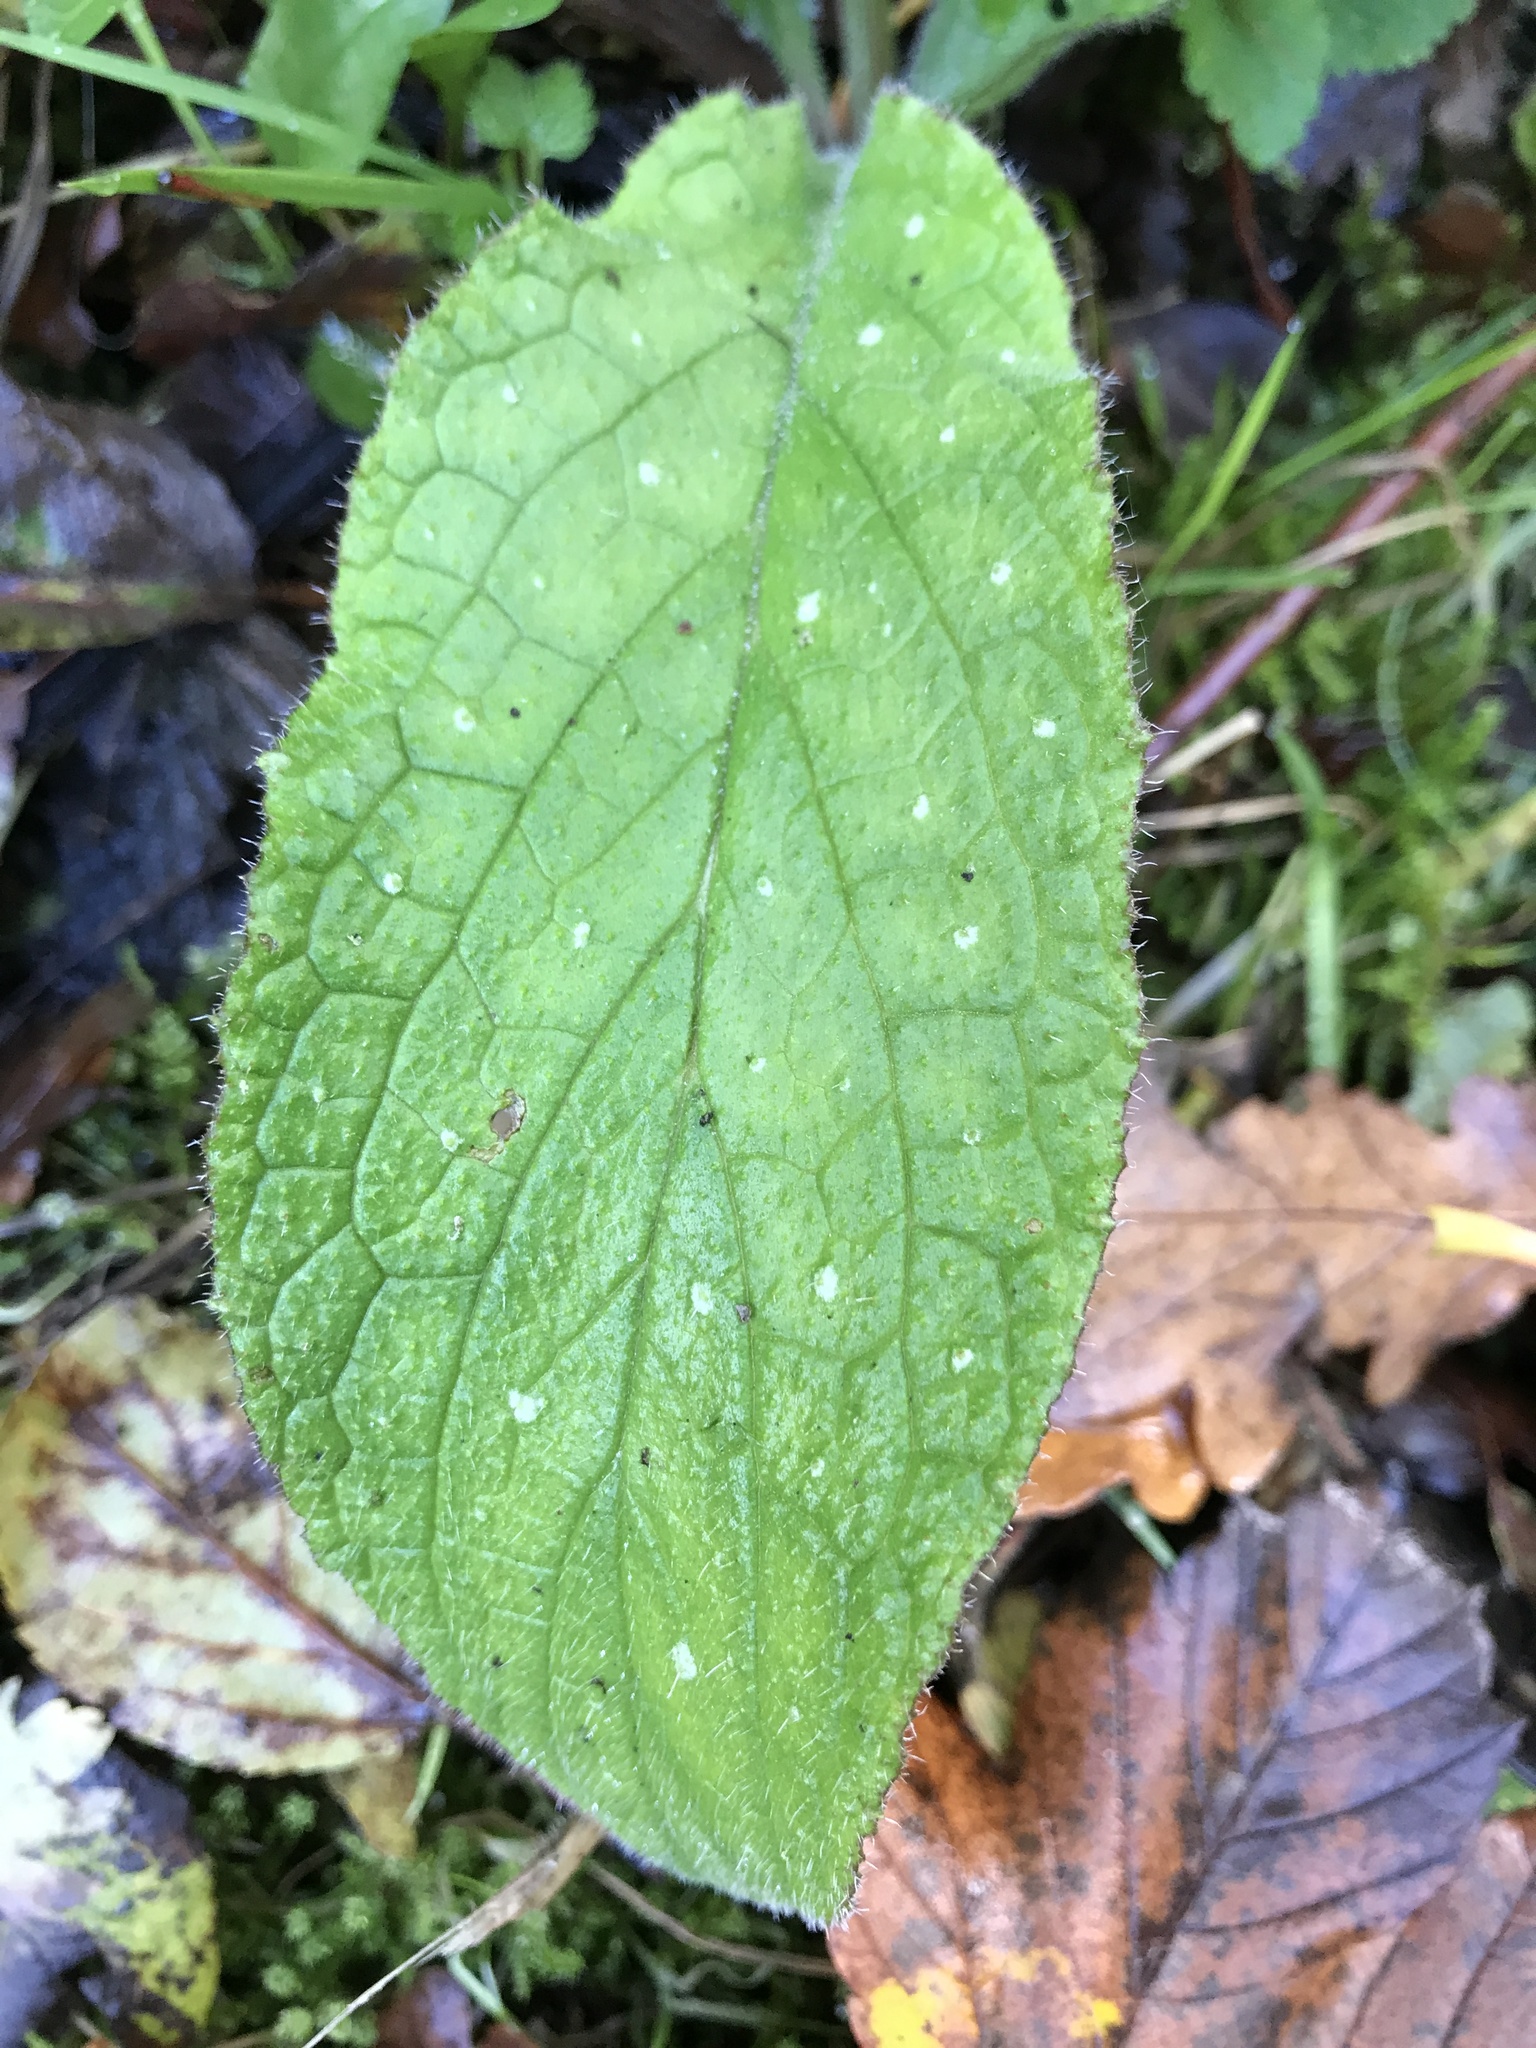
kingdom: Plantae
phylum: Tracheophyta
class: Magnoliopsida
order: Boraginales
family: Boraginaceae
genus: Pentaglottis
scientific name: Pentaglottis sempervirens
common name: Green alkanet
